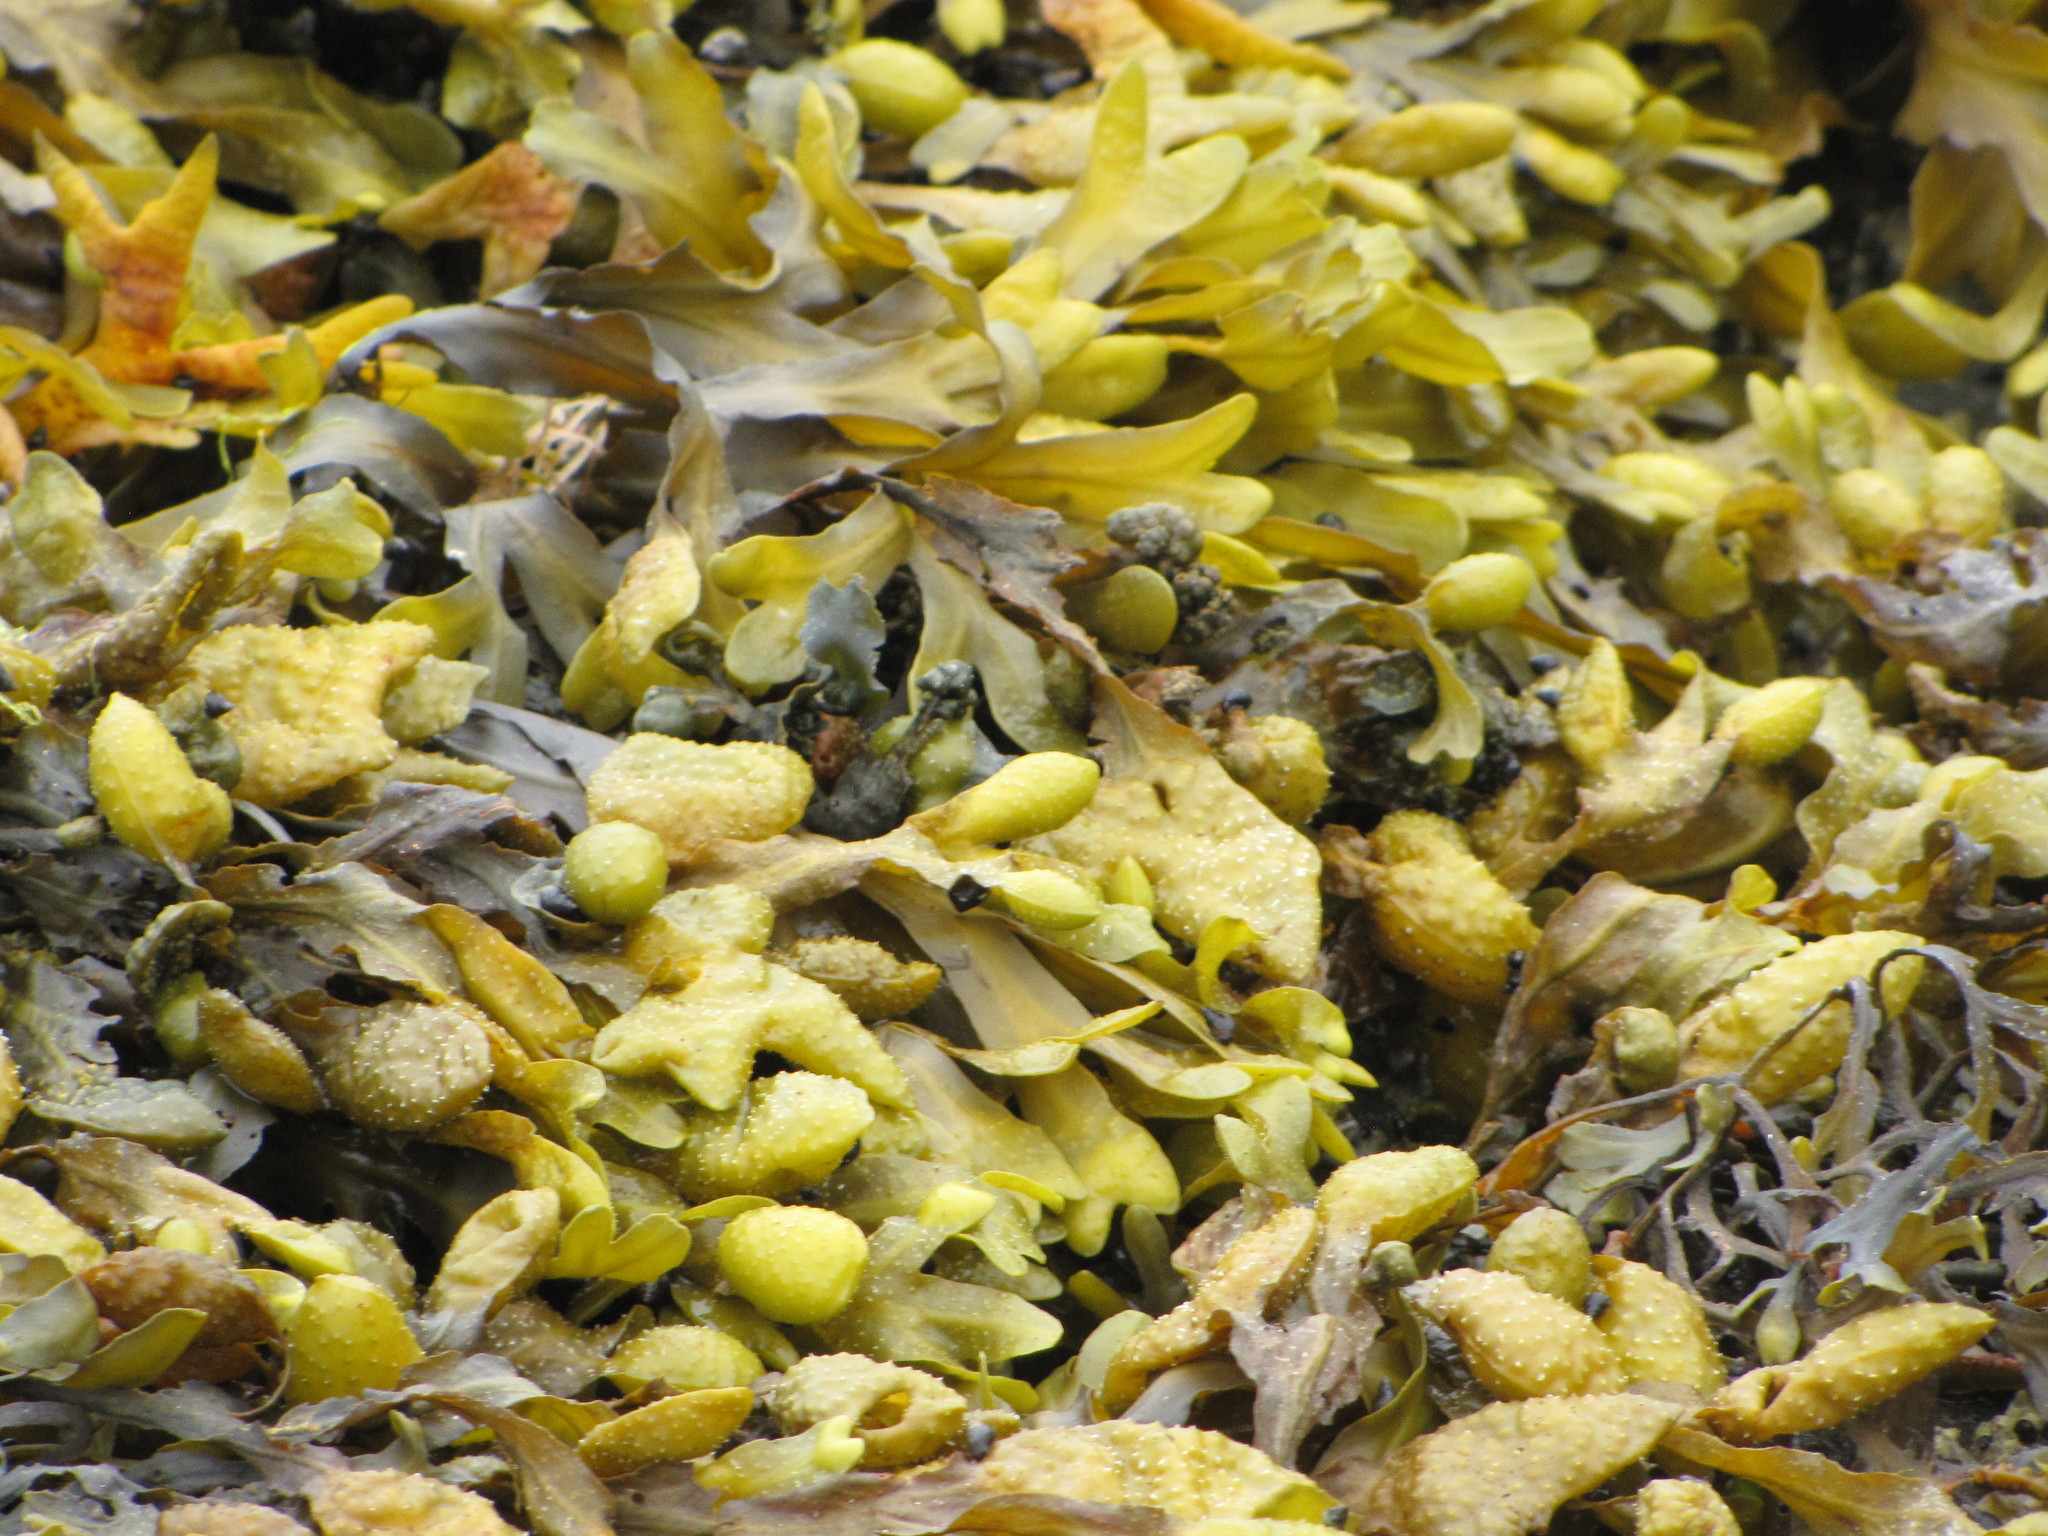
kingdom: Chromista
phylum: Ochrophyta
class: Phaeophyceae
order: Fucales
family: Fucaceae
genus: Fucus
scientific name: Fucus distichus
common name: Rockweed
